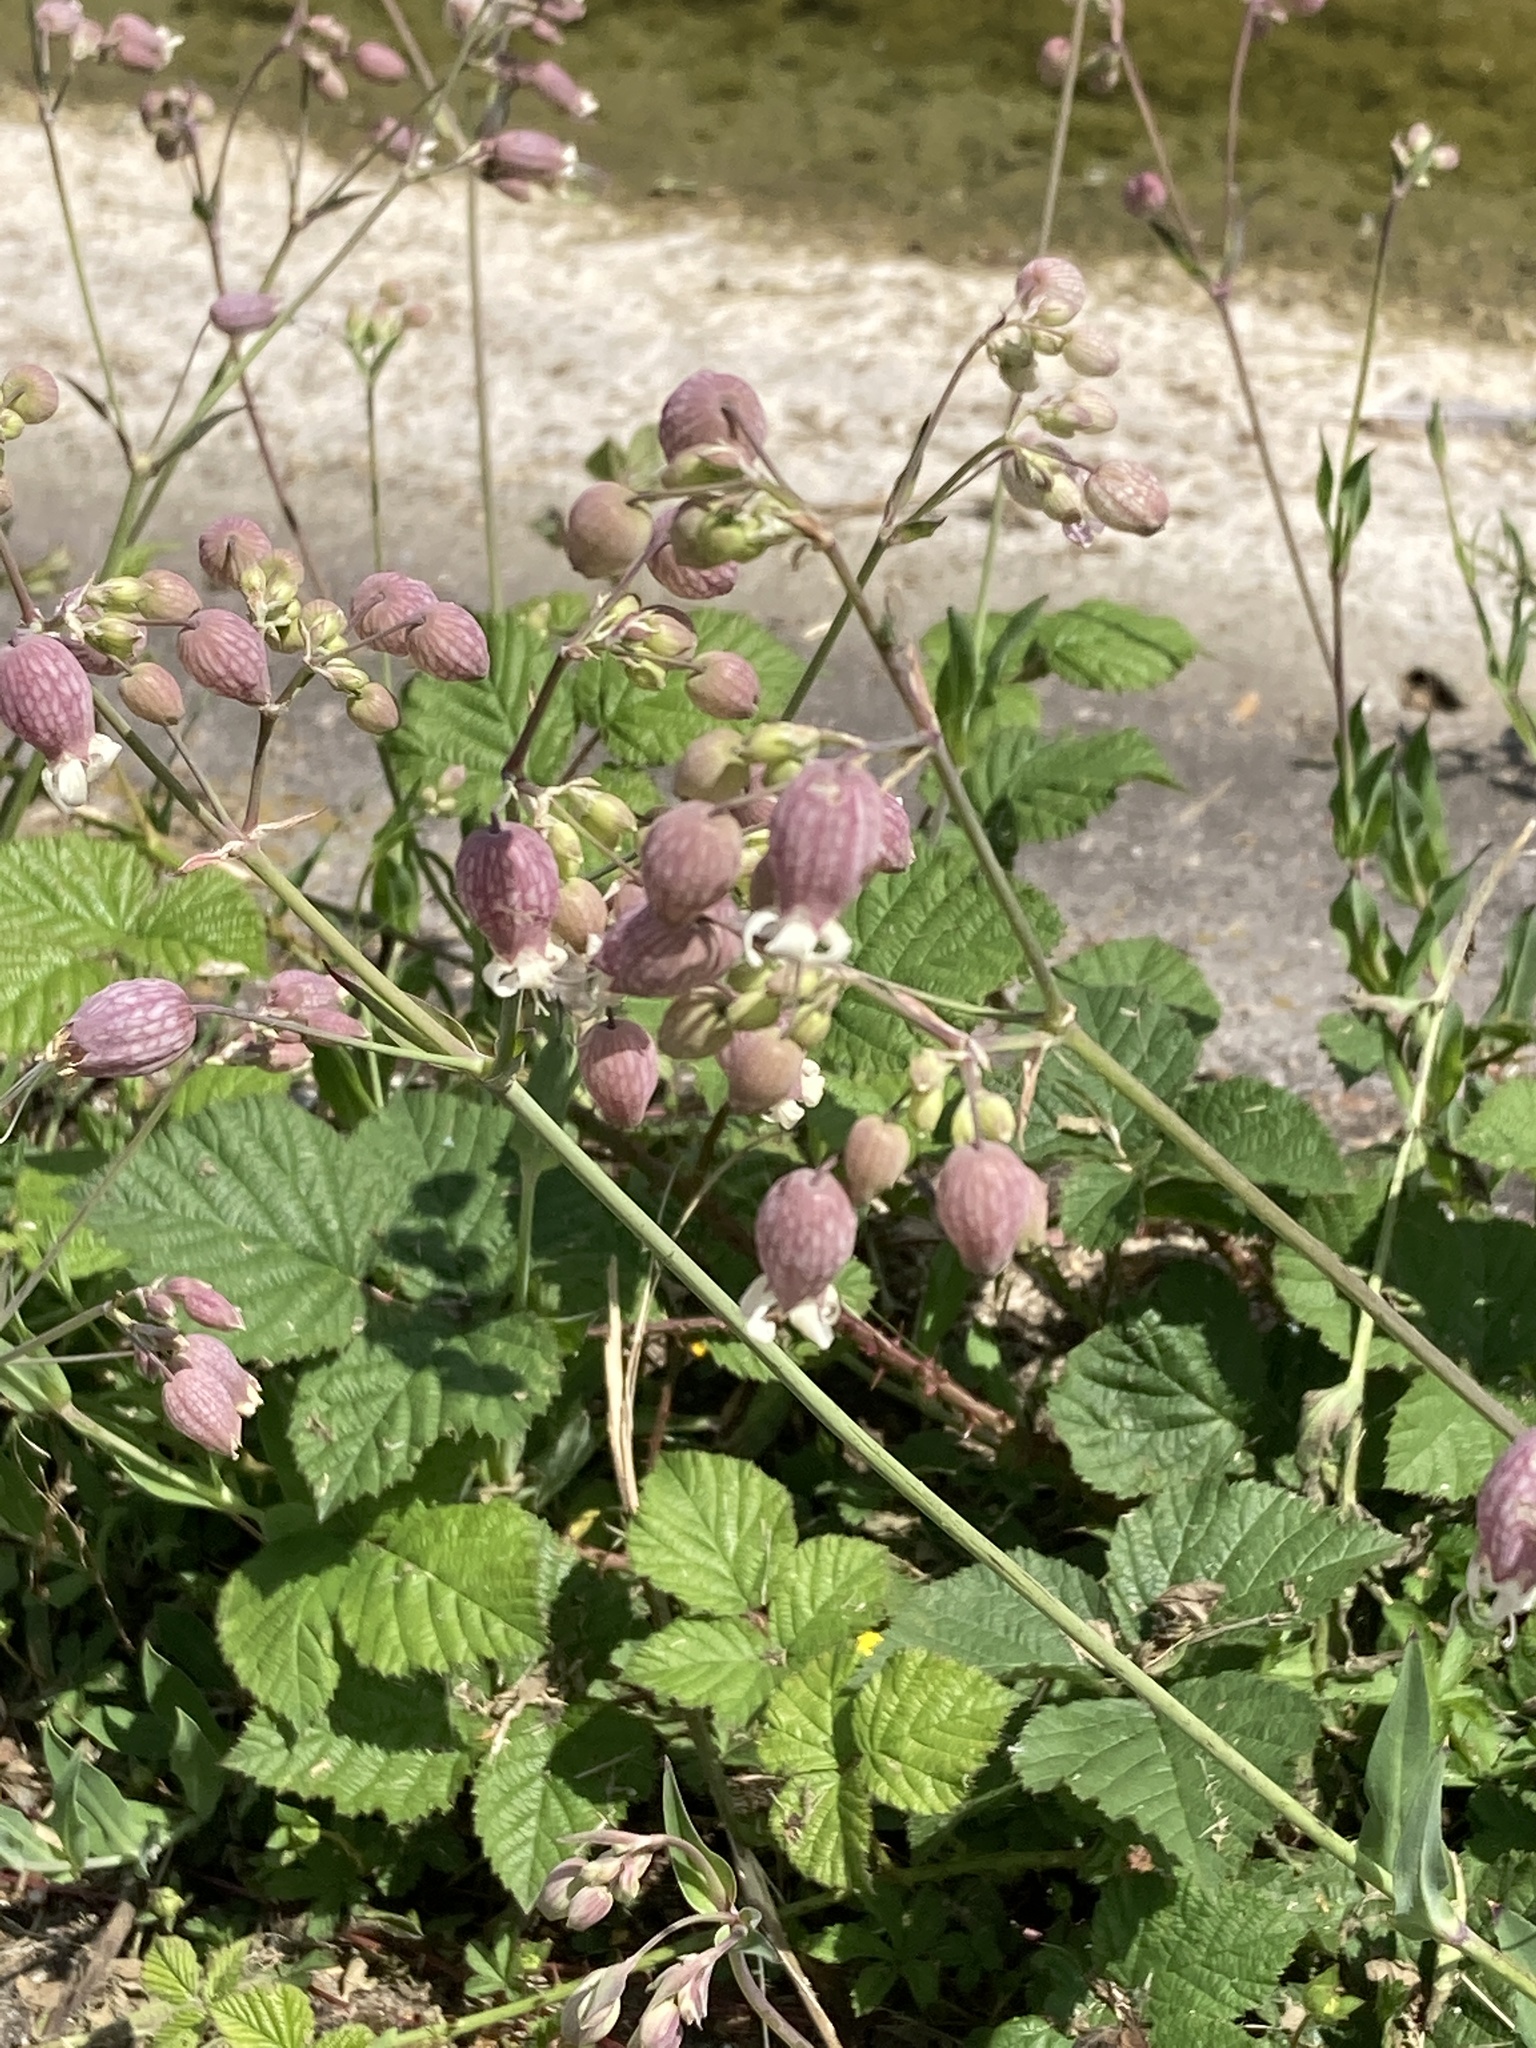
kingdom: Plantae
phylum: Tracheophyta
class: Magnoliopsida
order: Caryophyllales
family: Caryophyllaceae
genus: Silene
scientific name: Silene vulgaris
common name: Bladder campion
